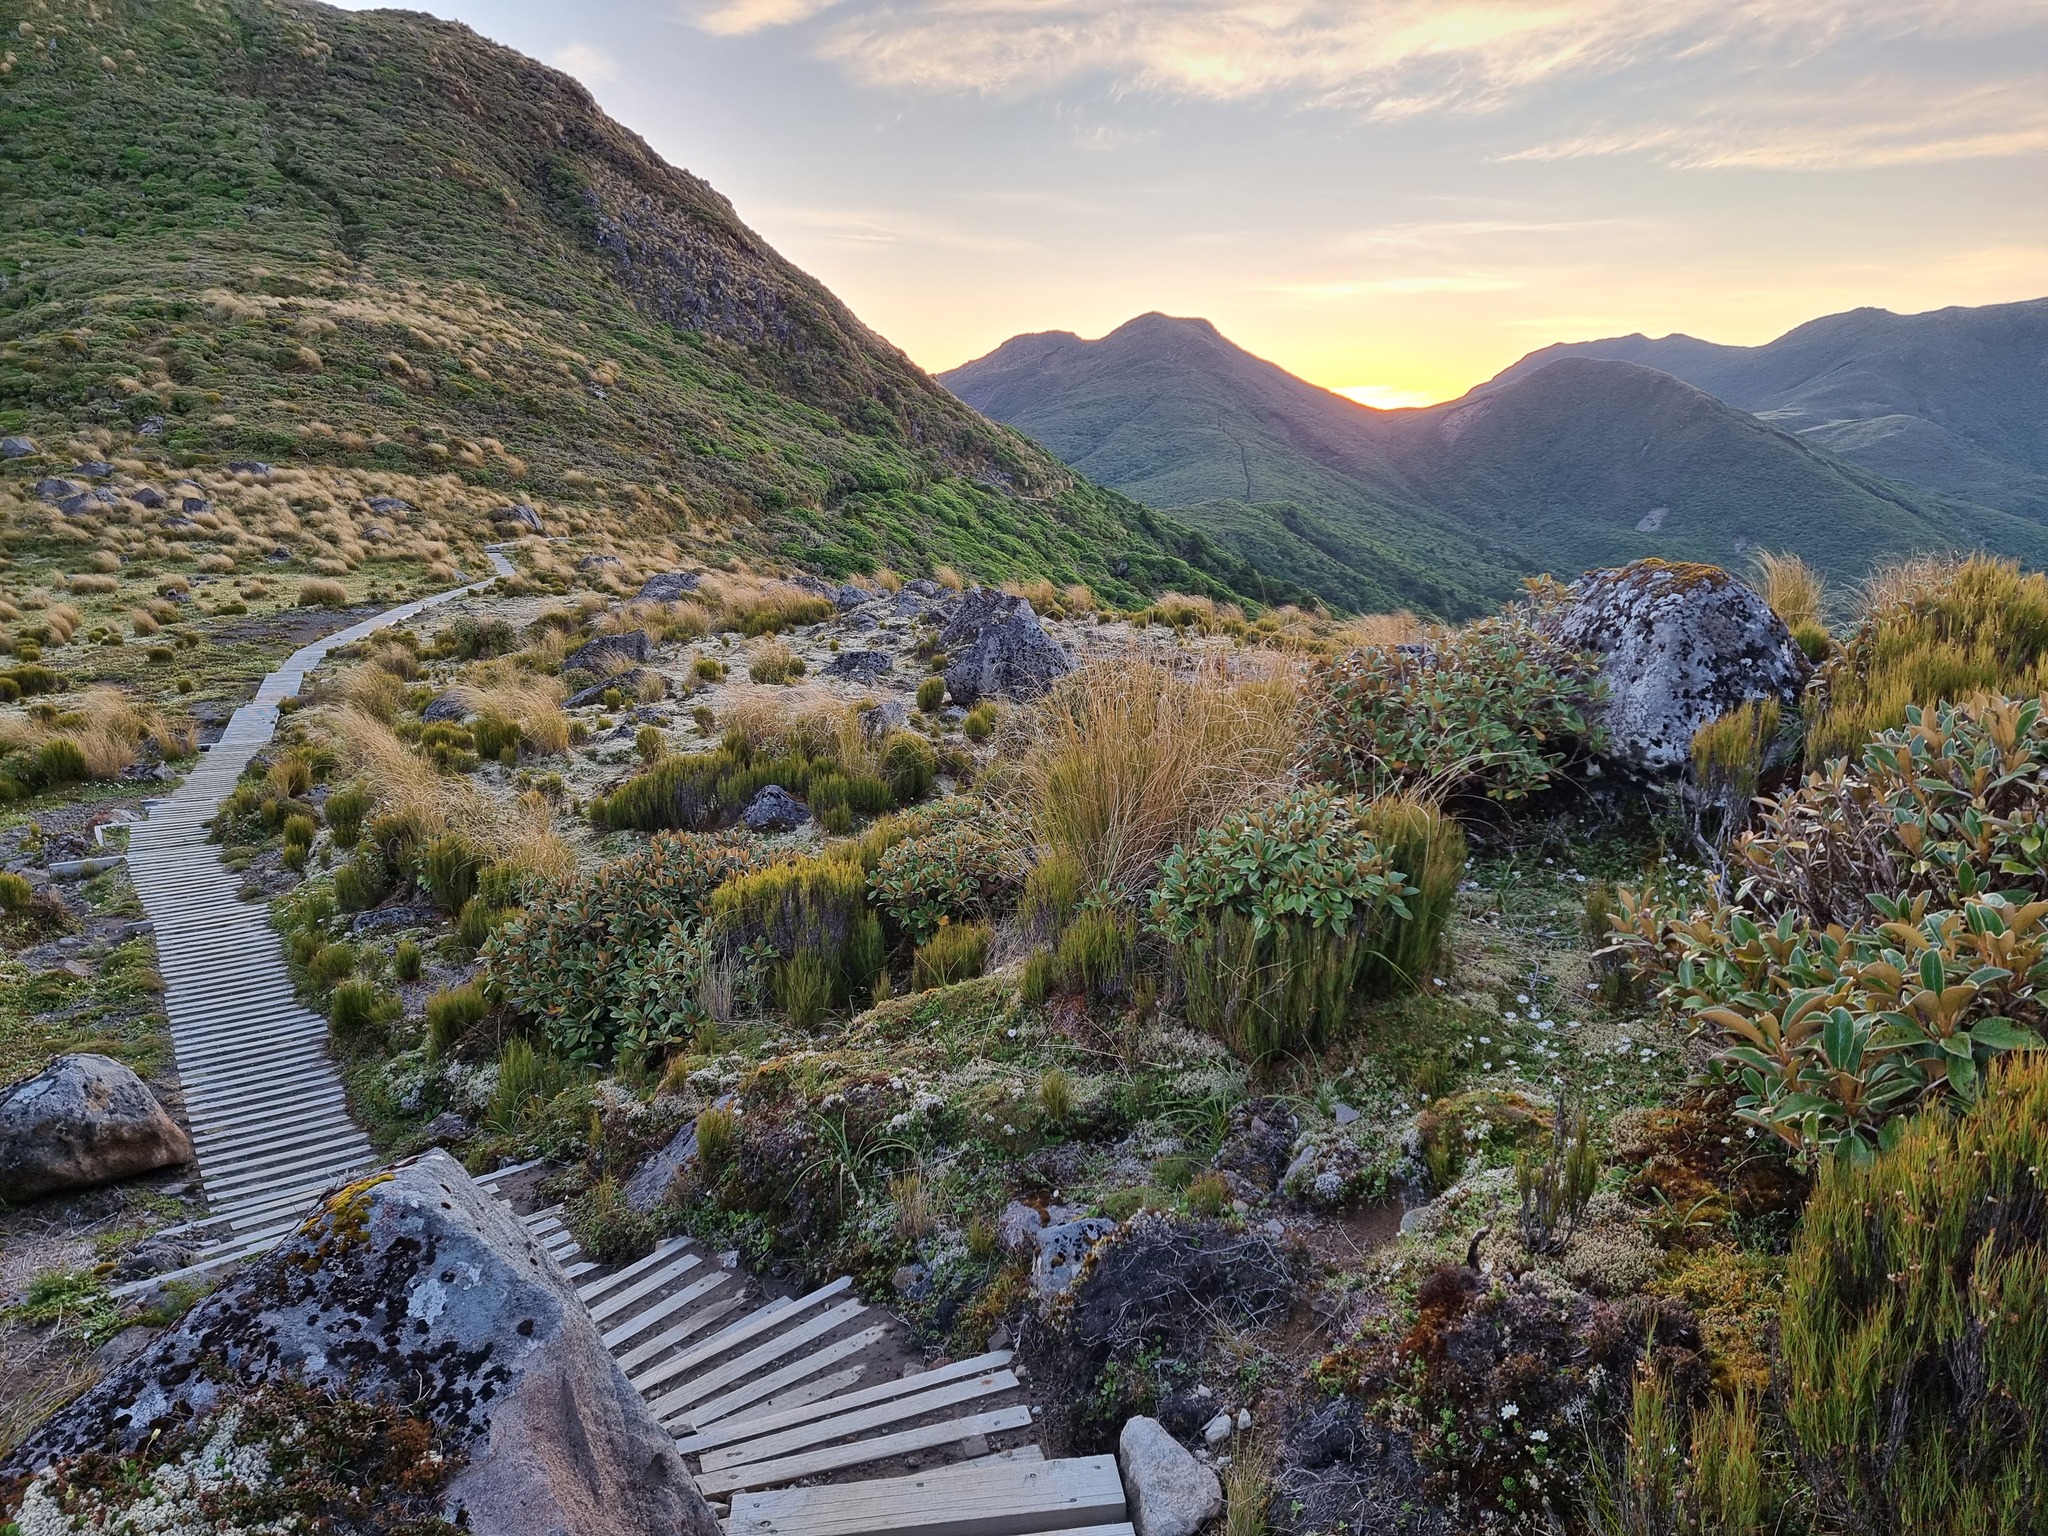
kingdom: Animalia
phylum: Arthropoda
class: Insecta
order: Orthoptera
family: Anostostomatidae
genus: Hemiandrus
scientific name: Hemiandrus pallitarsis
